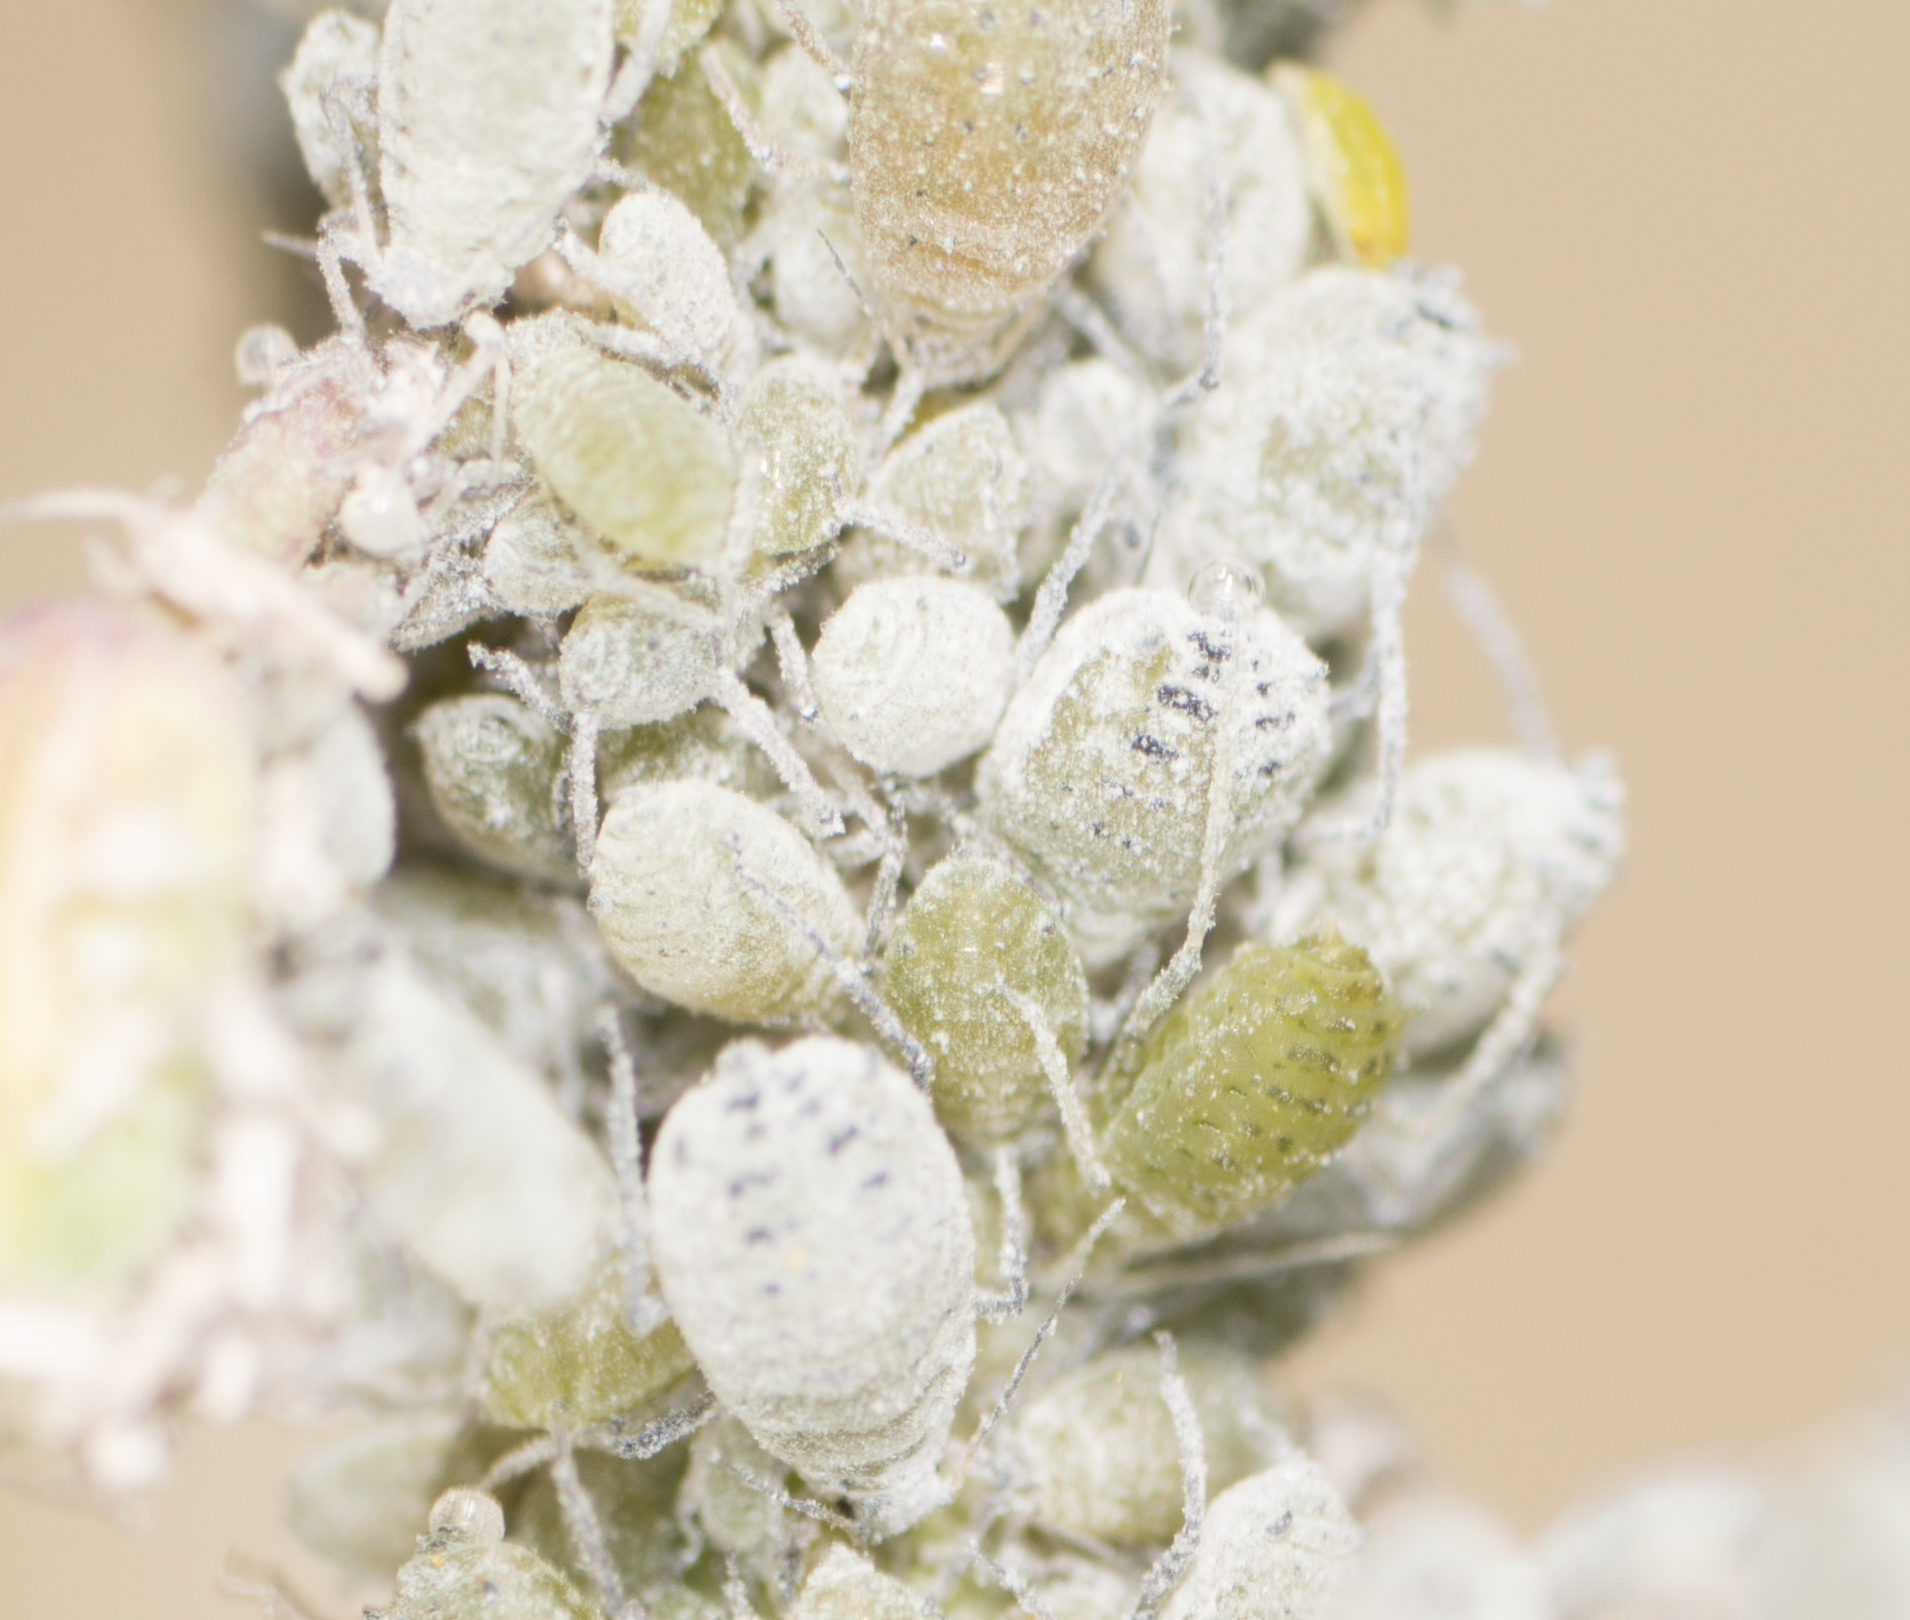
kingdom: Animalia
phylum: Arthropoda
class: Insecta
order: Hemiptera
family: Aphididae
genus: Brevicoryne
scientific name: Brevicoryne brassicae
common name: Cabbage aphid
